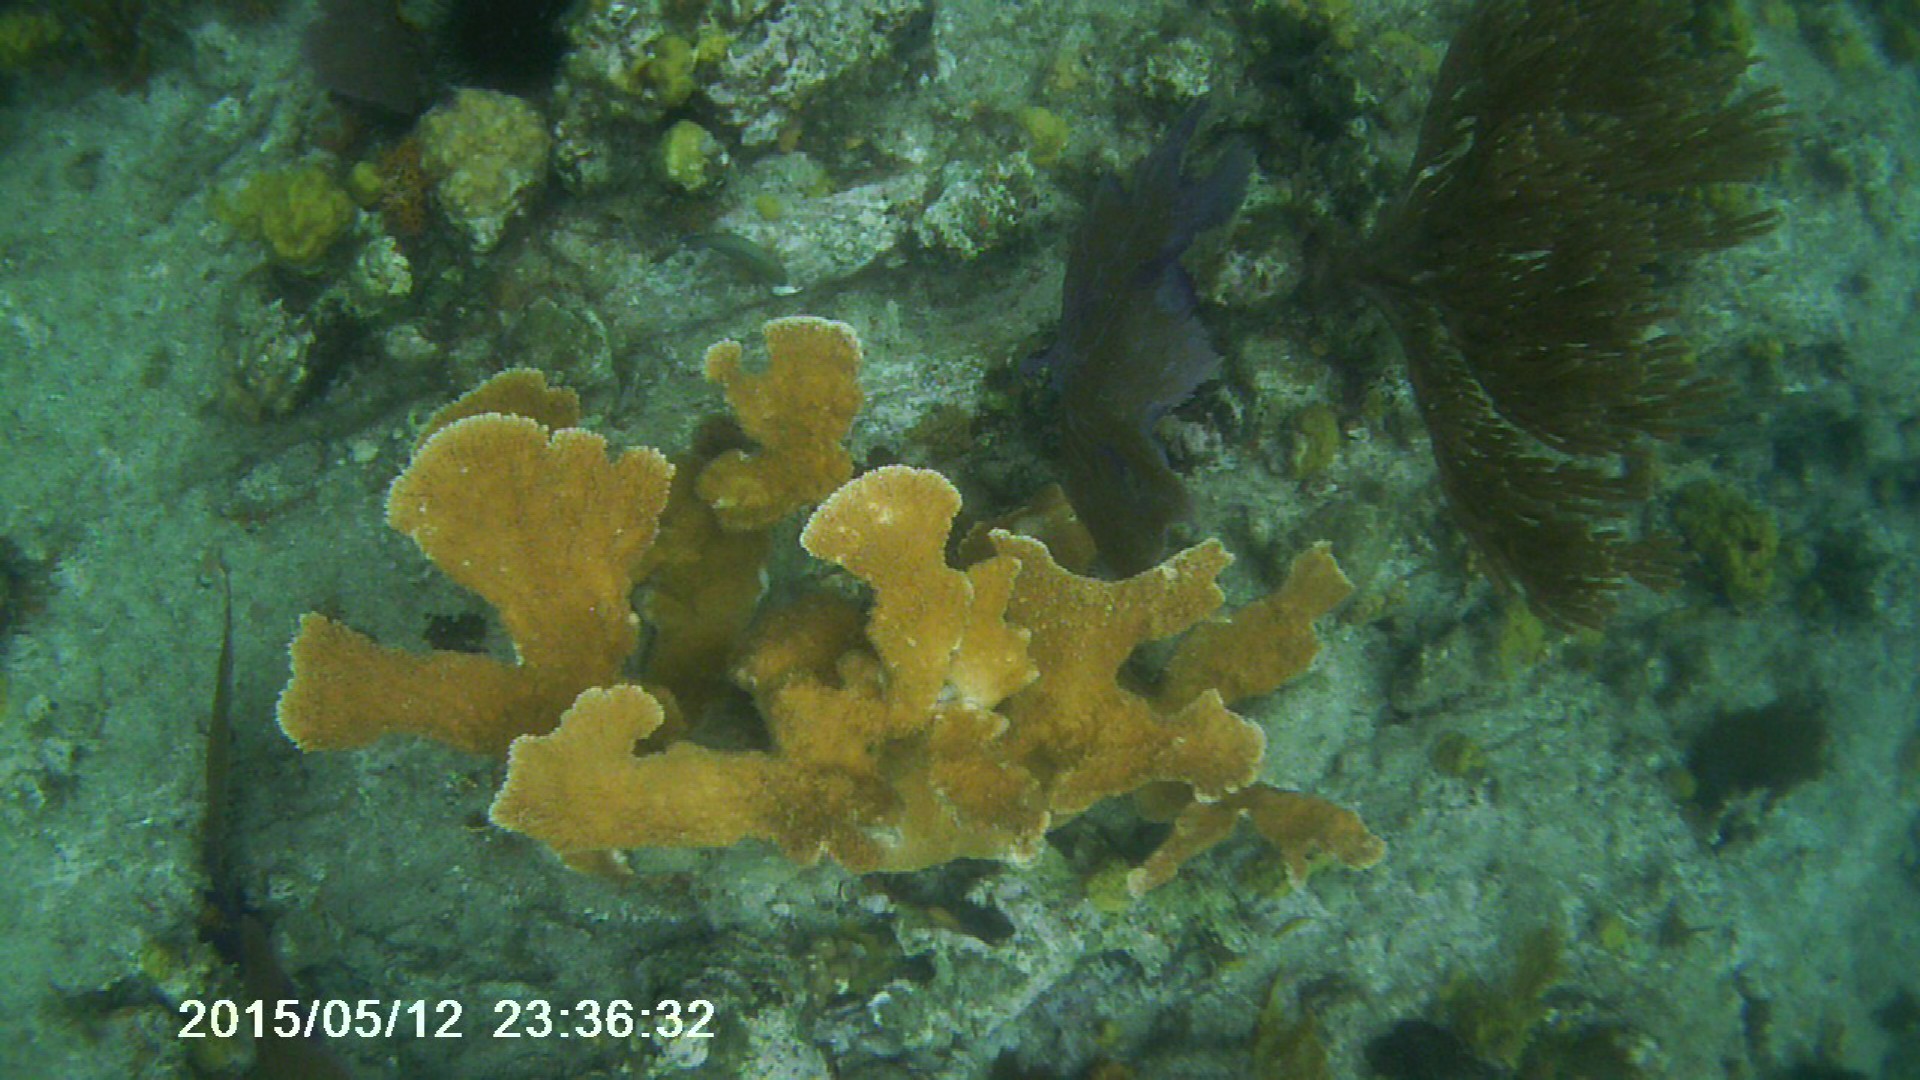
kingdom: Animalia
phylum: Cnidaria
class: Anthozoa
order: Scleractinia
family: Acroporidae
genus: Acropora
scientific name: Acropora palmata
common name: Elkhorn coral
